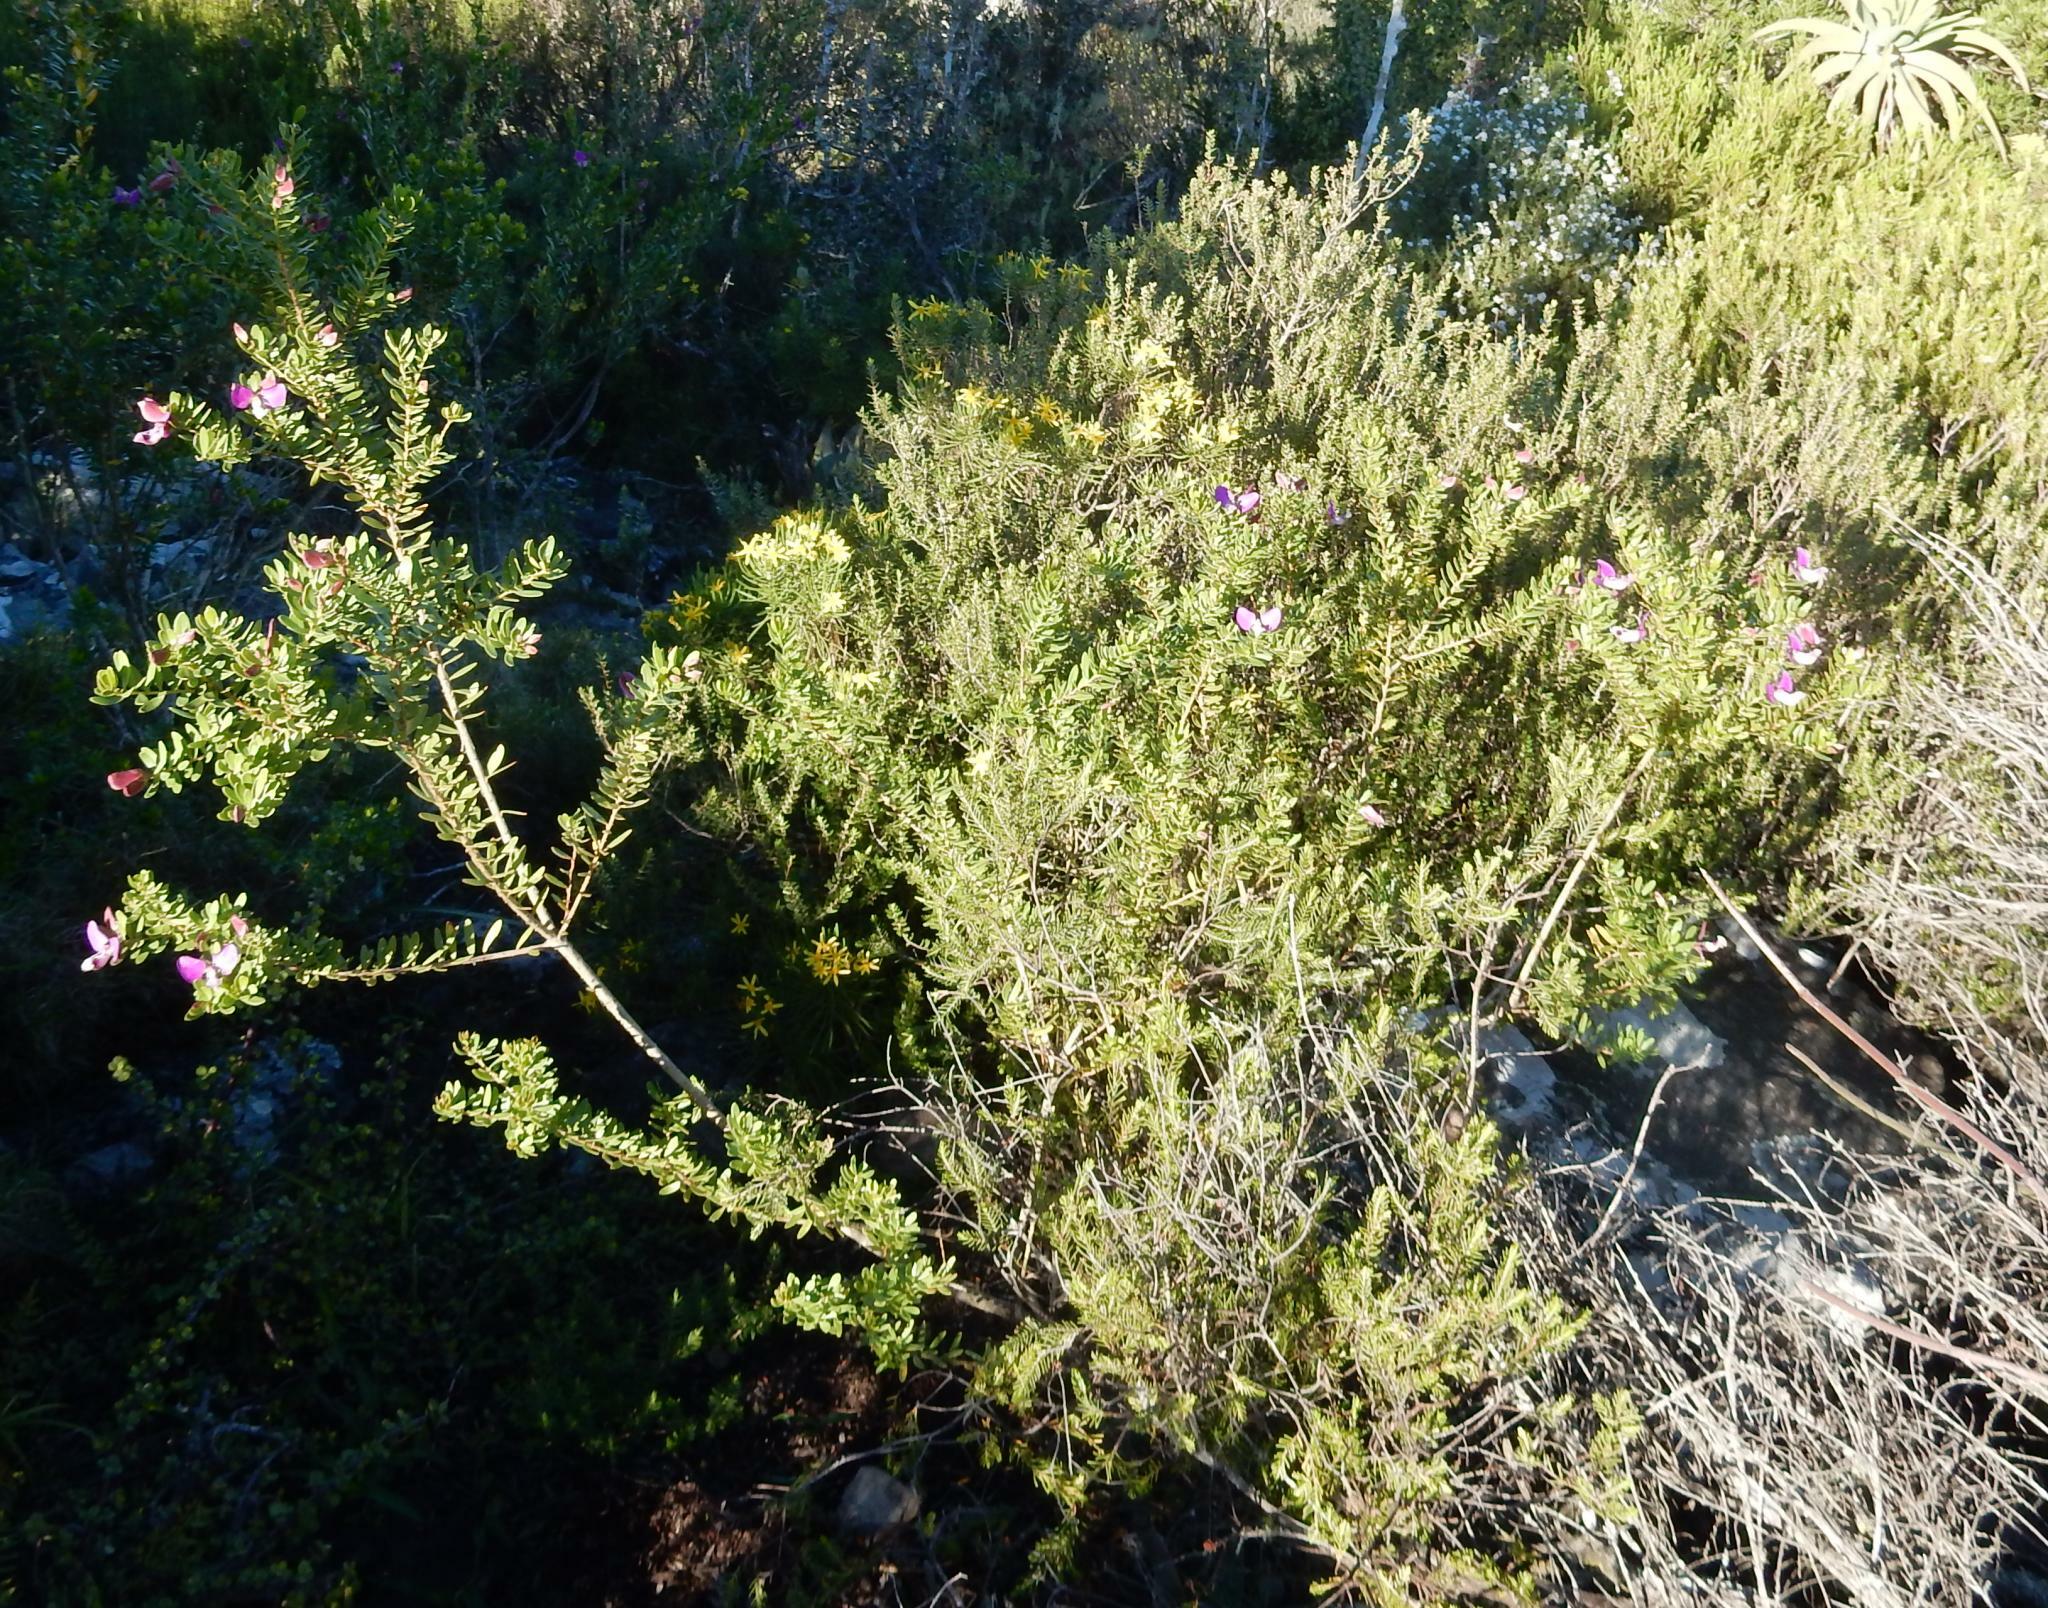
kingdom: Plantae
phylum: Tracheophyta
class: Magnoliopsida
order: Fabales
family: Polygalaceae
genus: Polygala
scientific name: Polygala myrtifolia
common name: Myrtle-leaf milkwort
